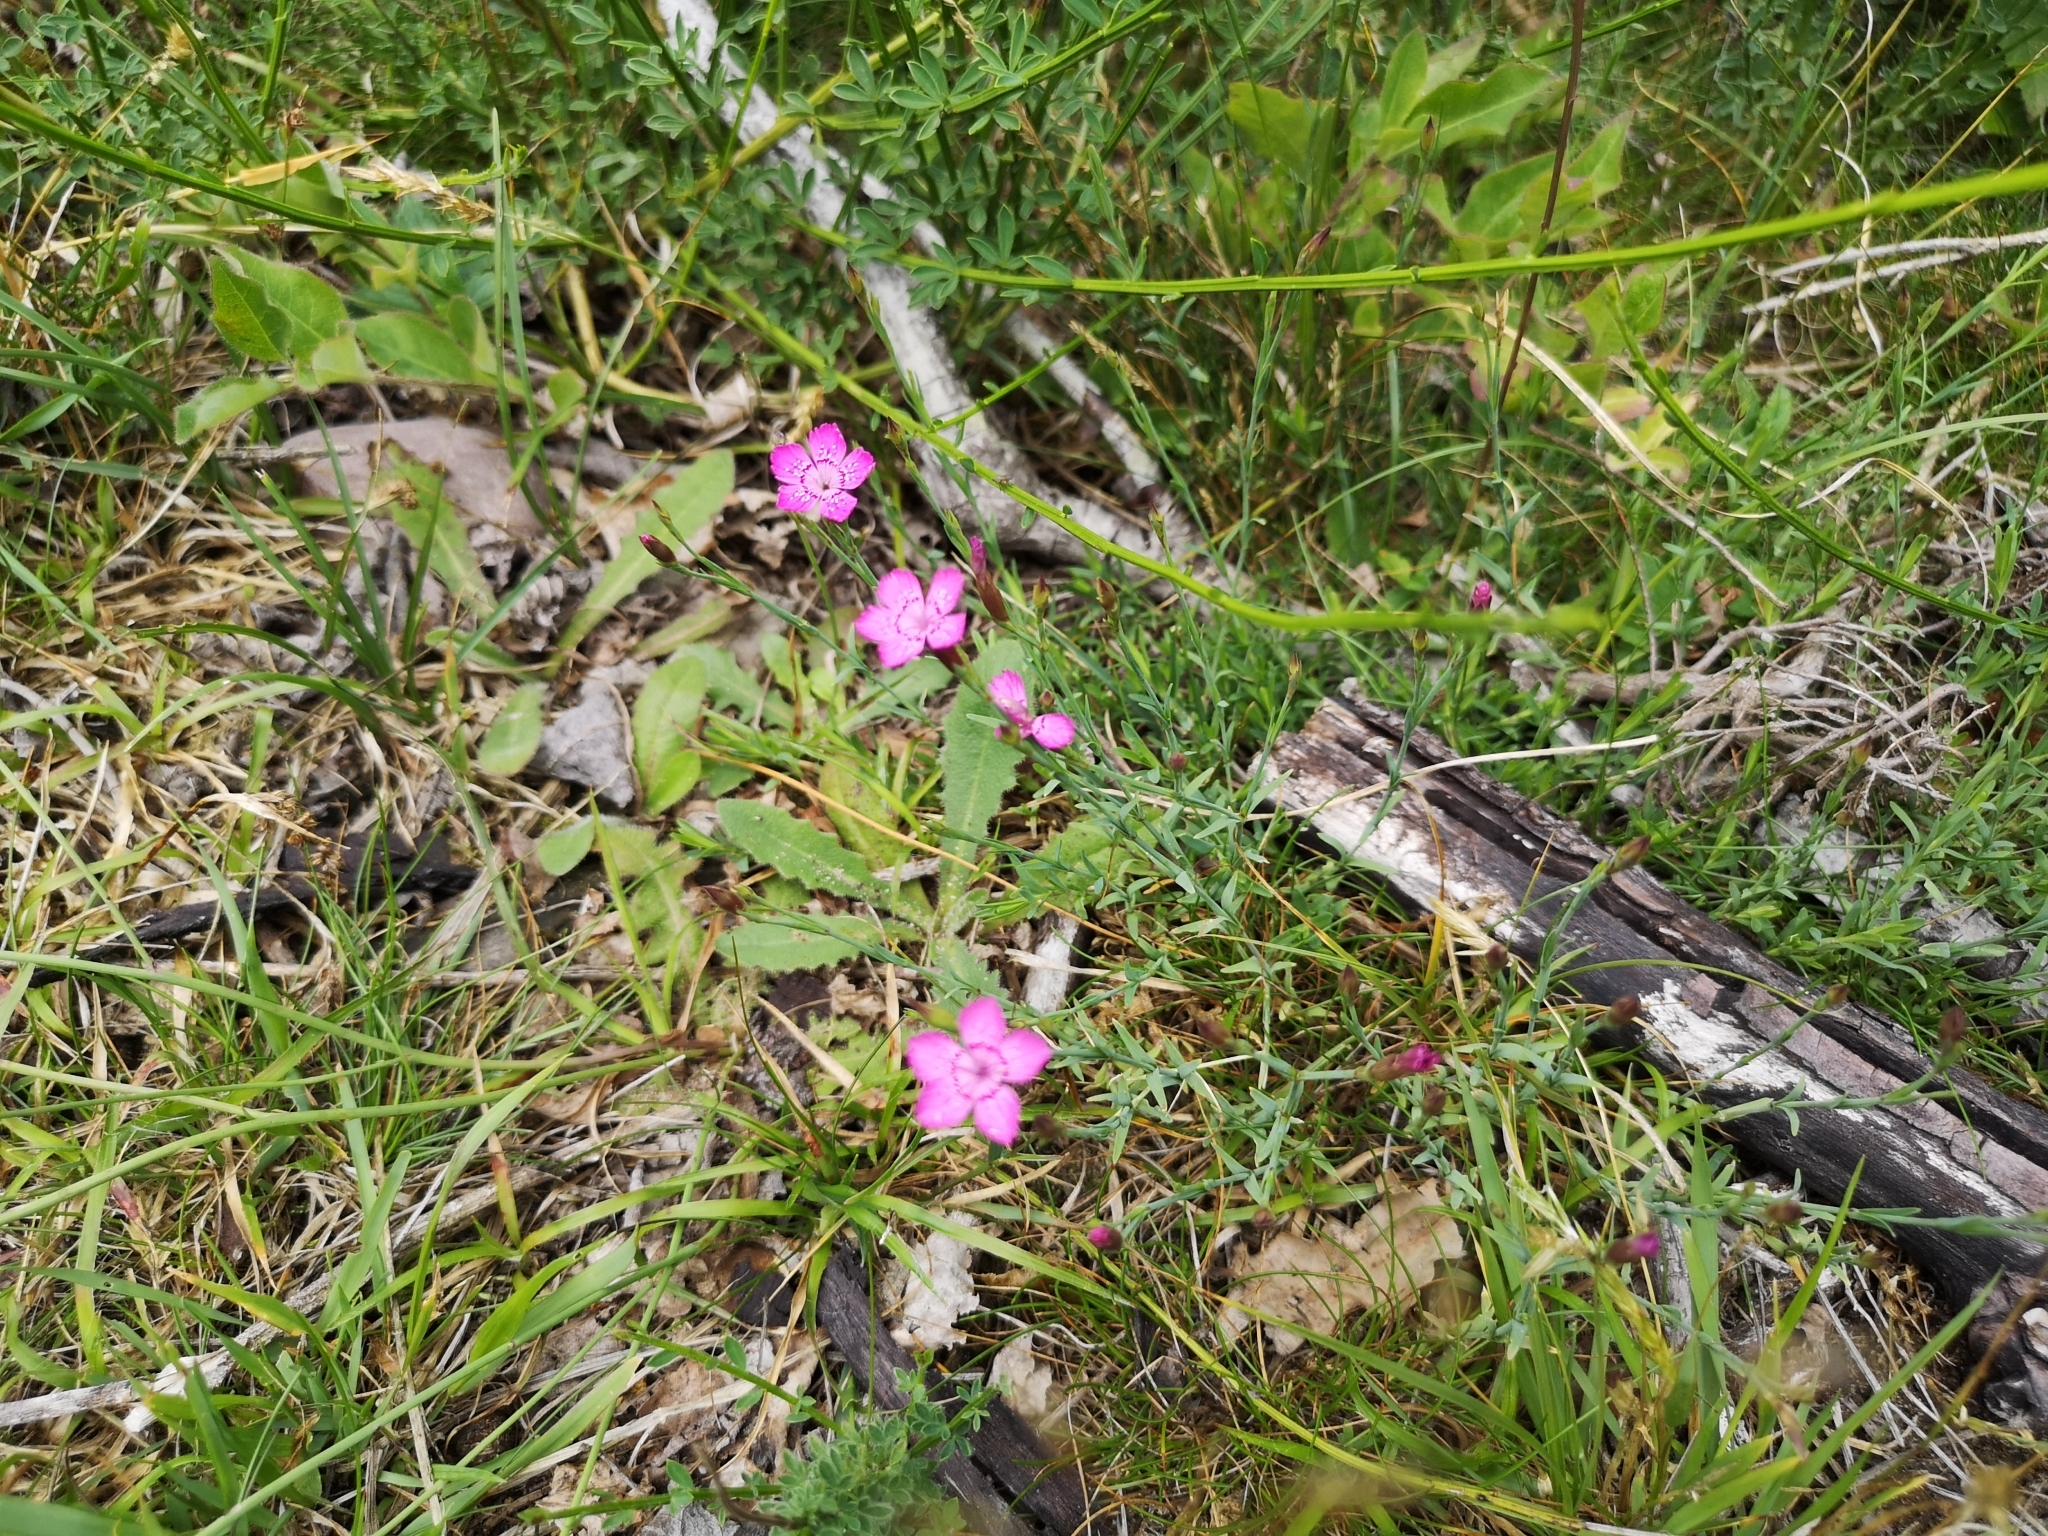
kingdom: Plantae
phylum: Tracheophyta
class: Magnoliopsida
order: Caryophyllales
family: Caryophyllaceae
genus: Dianthus
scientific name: Dianthus deltoides
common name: Maiden pink
